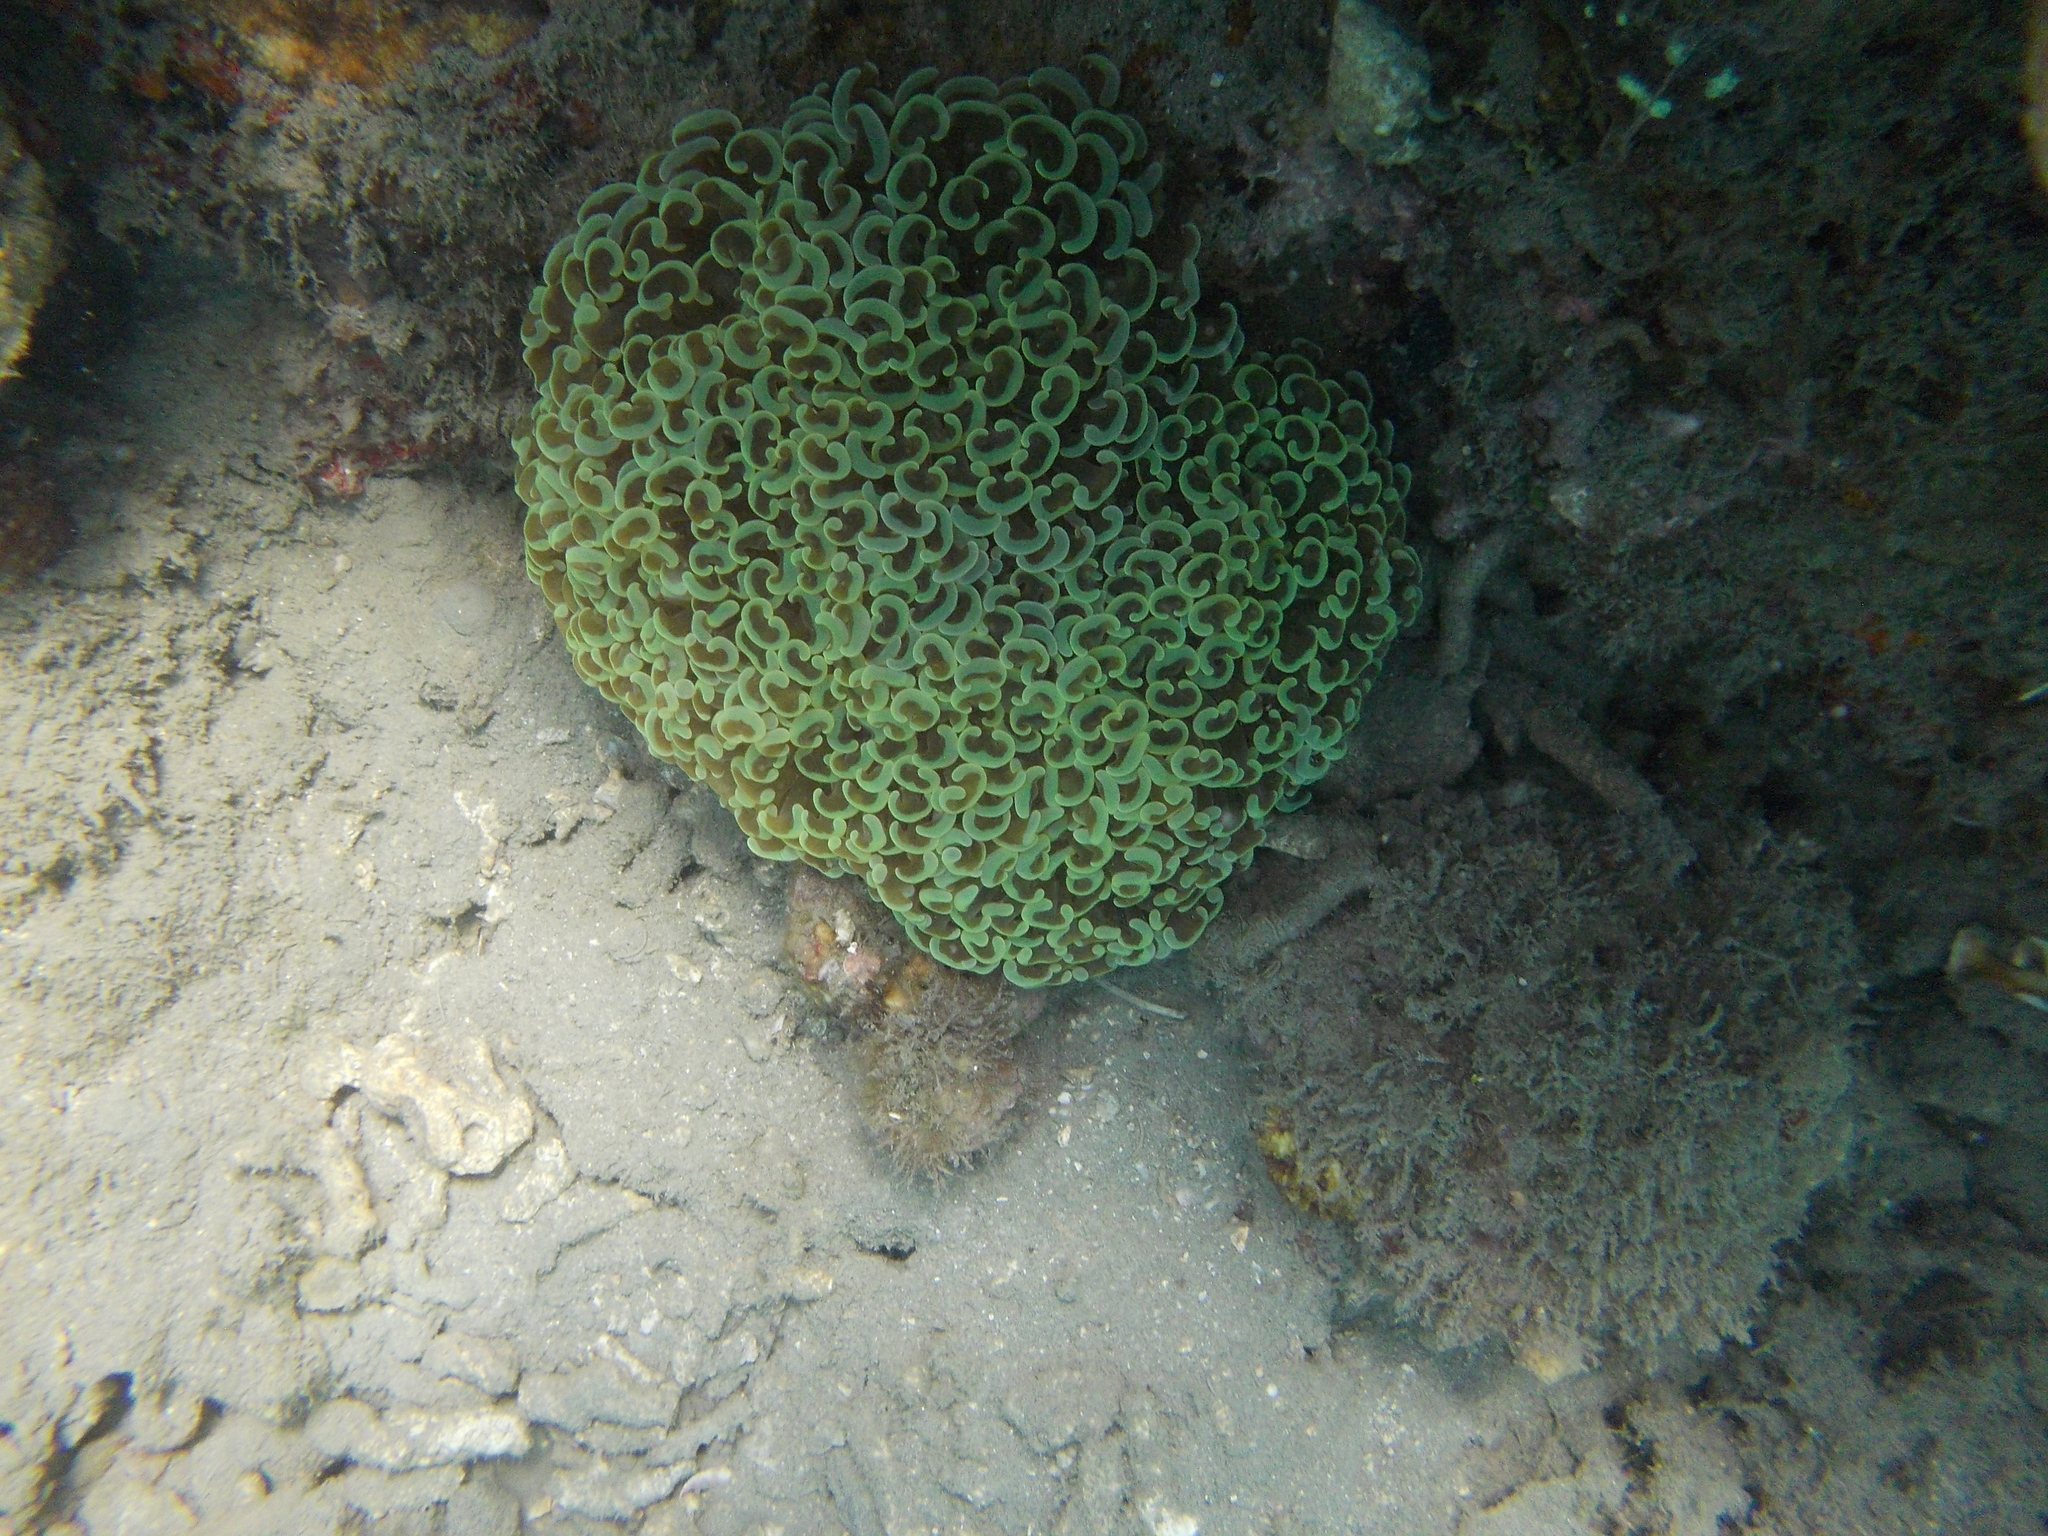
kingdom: Animalia
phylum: Cnidaria
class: Anthozoa
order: Scleractinia
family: Euphylliidae
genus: Fimbriaphyllia
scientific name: Fimbriaphyllia ancora
